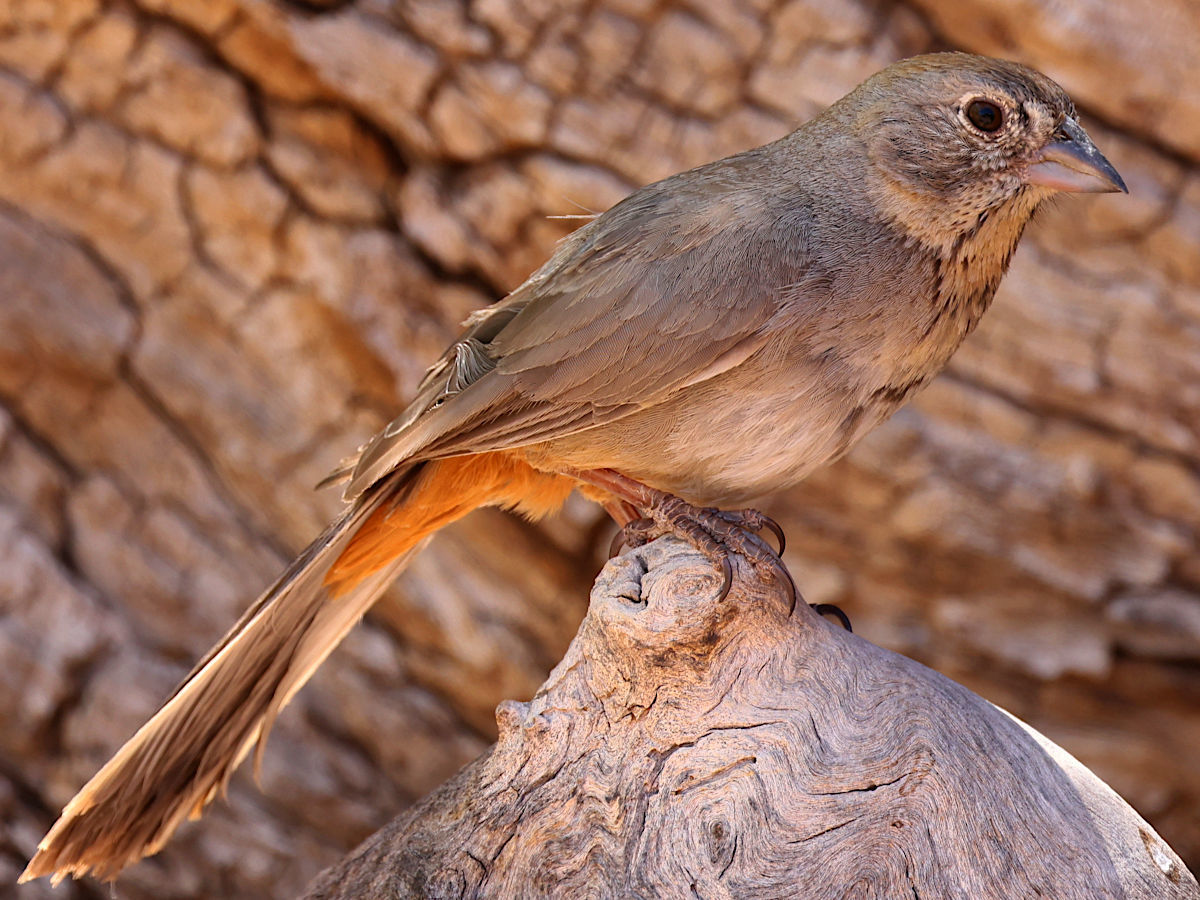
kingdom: Animalia
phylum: Chordata
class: Aves
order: Passeriformes
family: Passerellidae
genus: Melozone
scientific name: Melozone fusca
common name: Canyon towhee
